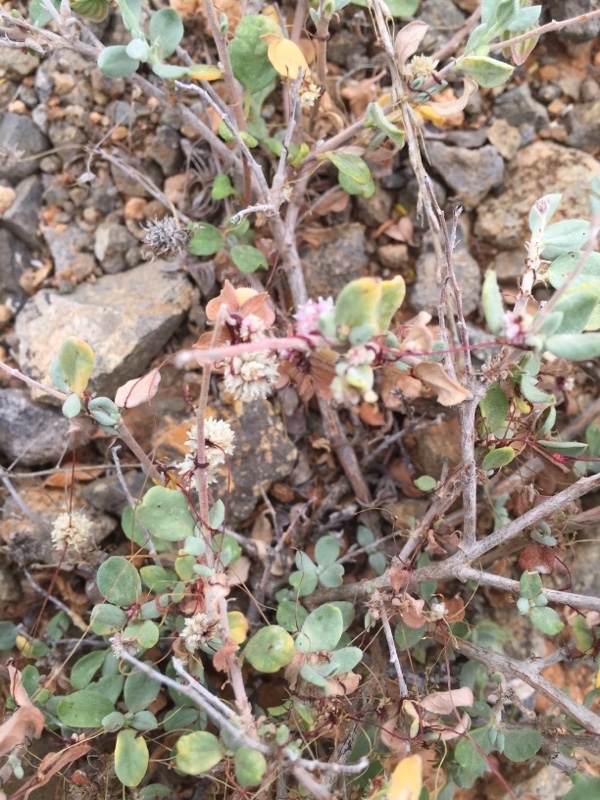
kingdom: Plantae
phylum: Tracheophyta
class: Magnoliopsida
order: Solanales
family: Convolvulaceae
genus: Cuscuta
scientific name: Cuscuta planiflora
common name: Small-seed alfalfa dodder
